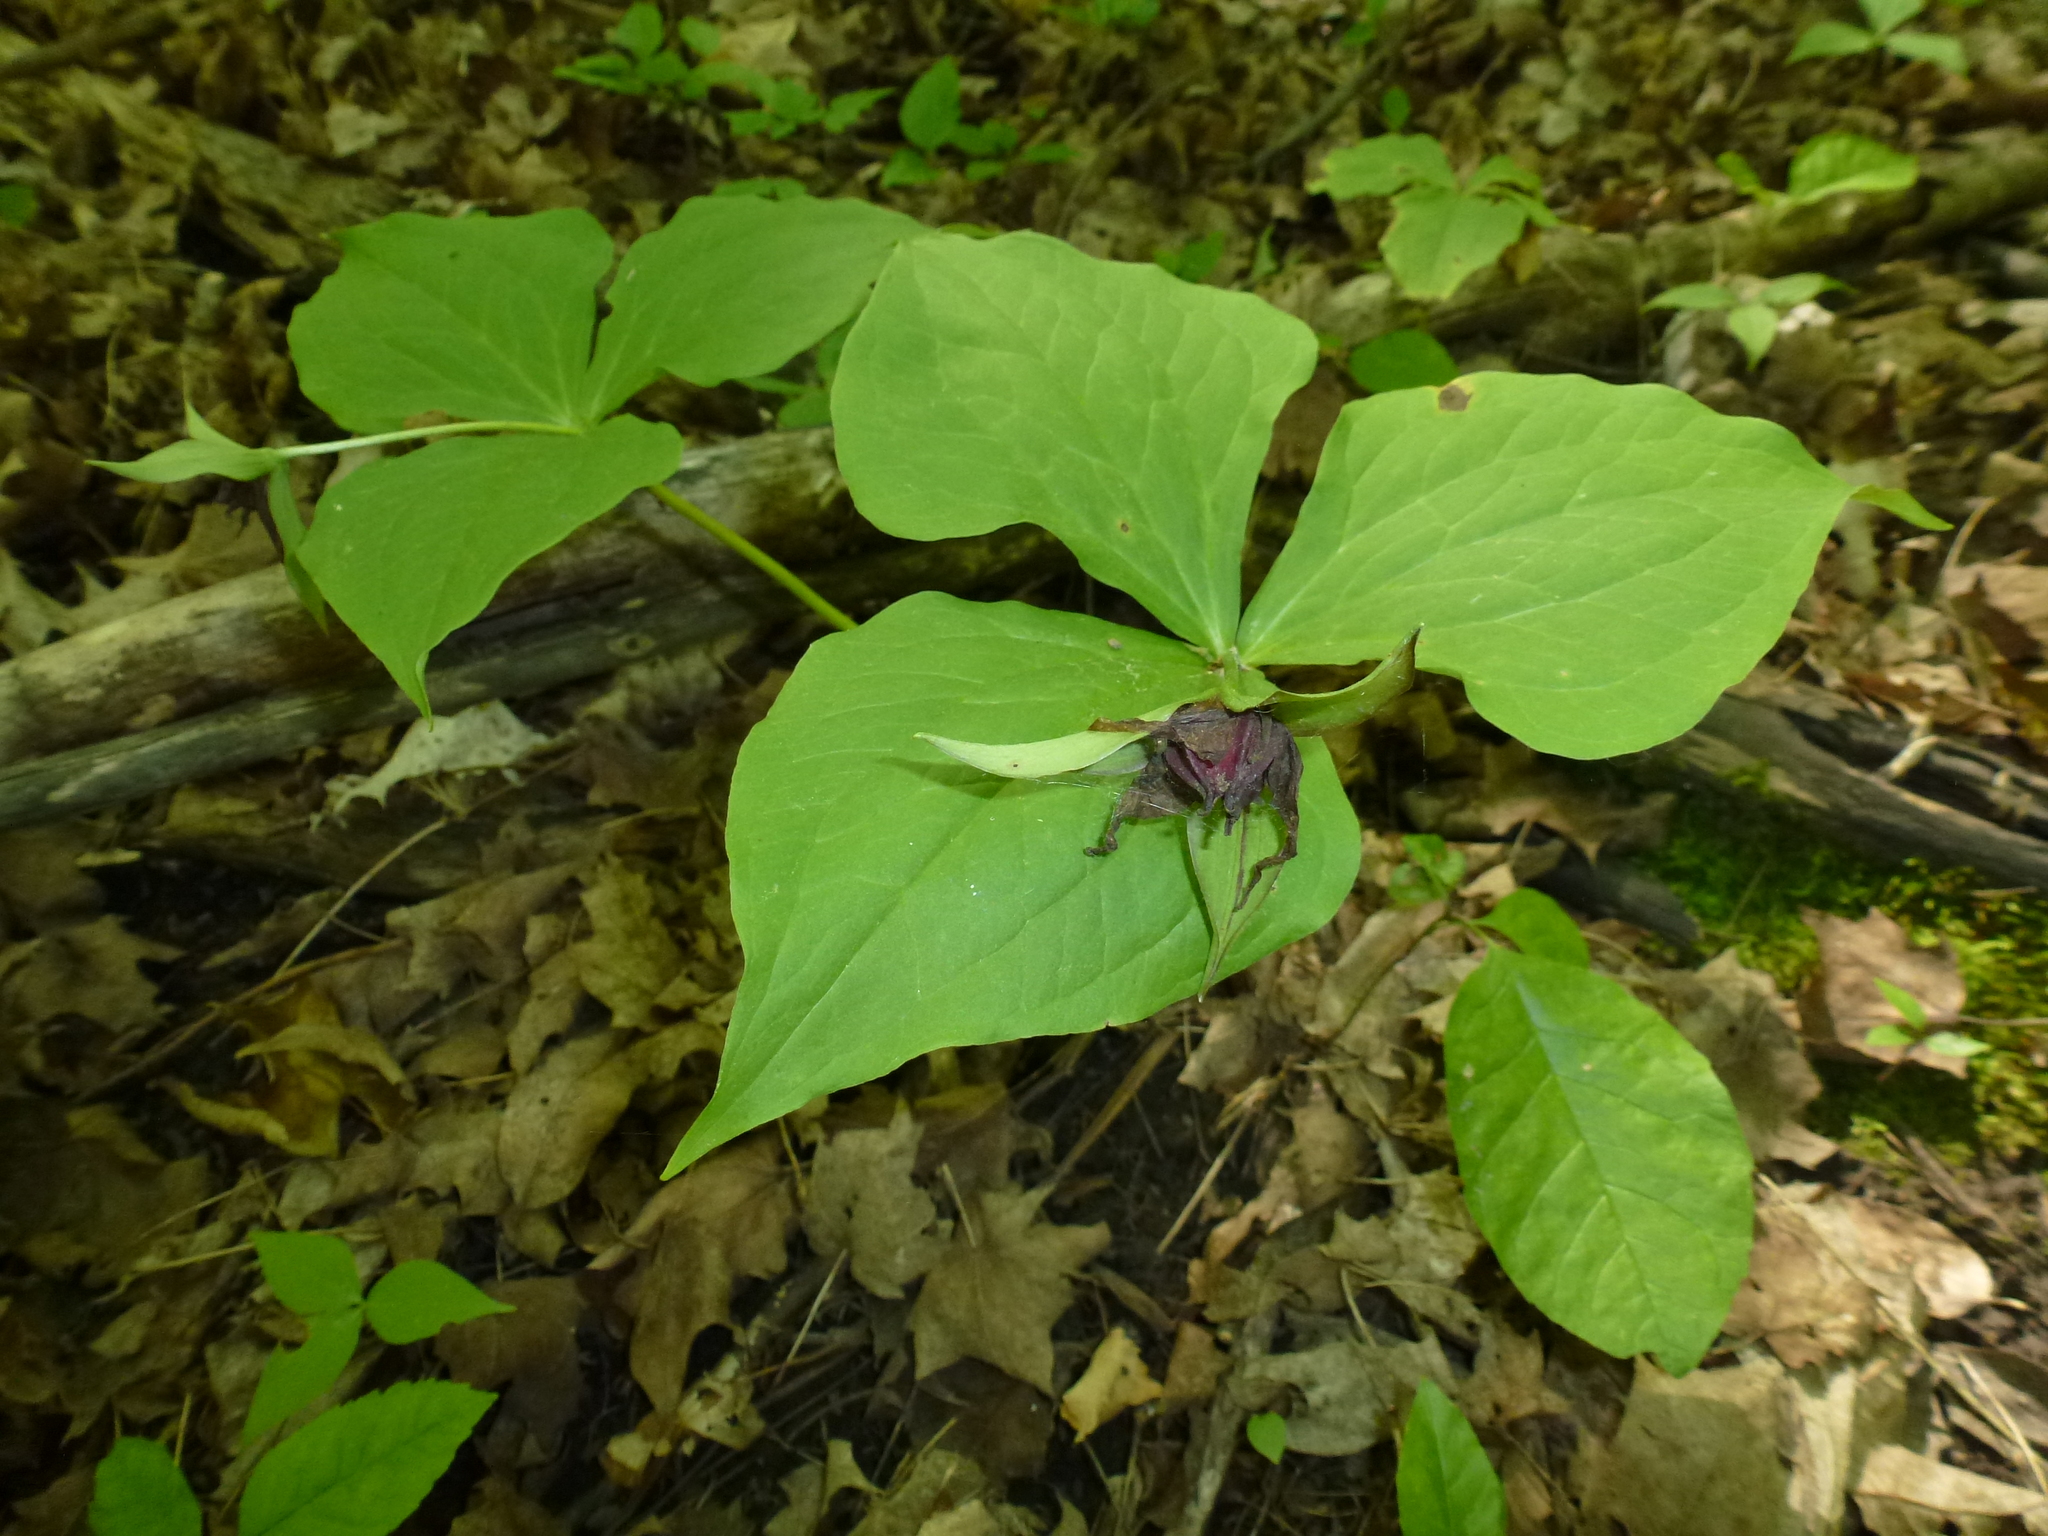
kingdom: Plantae
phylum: Tracheophyta
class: Liliopsida
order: Liliales
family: Melanthiaceae
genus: Trillium
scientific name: Trillium erectum
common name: Purple trillium
